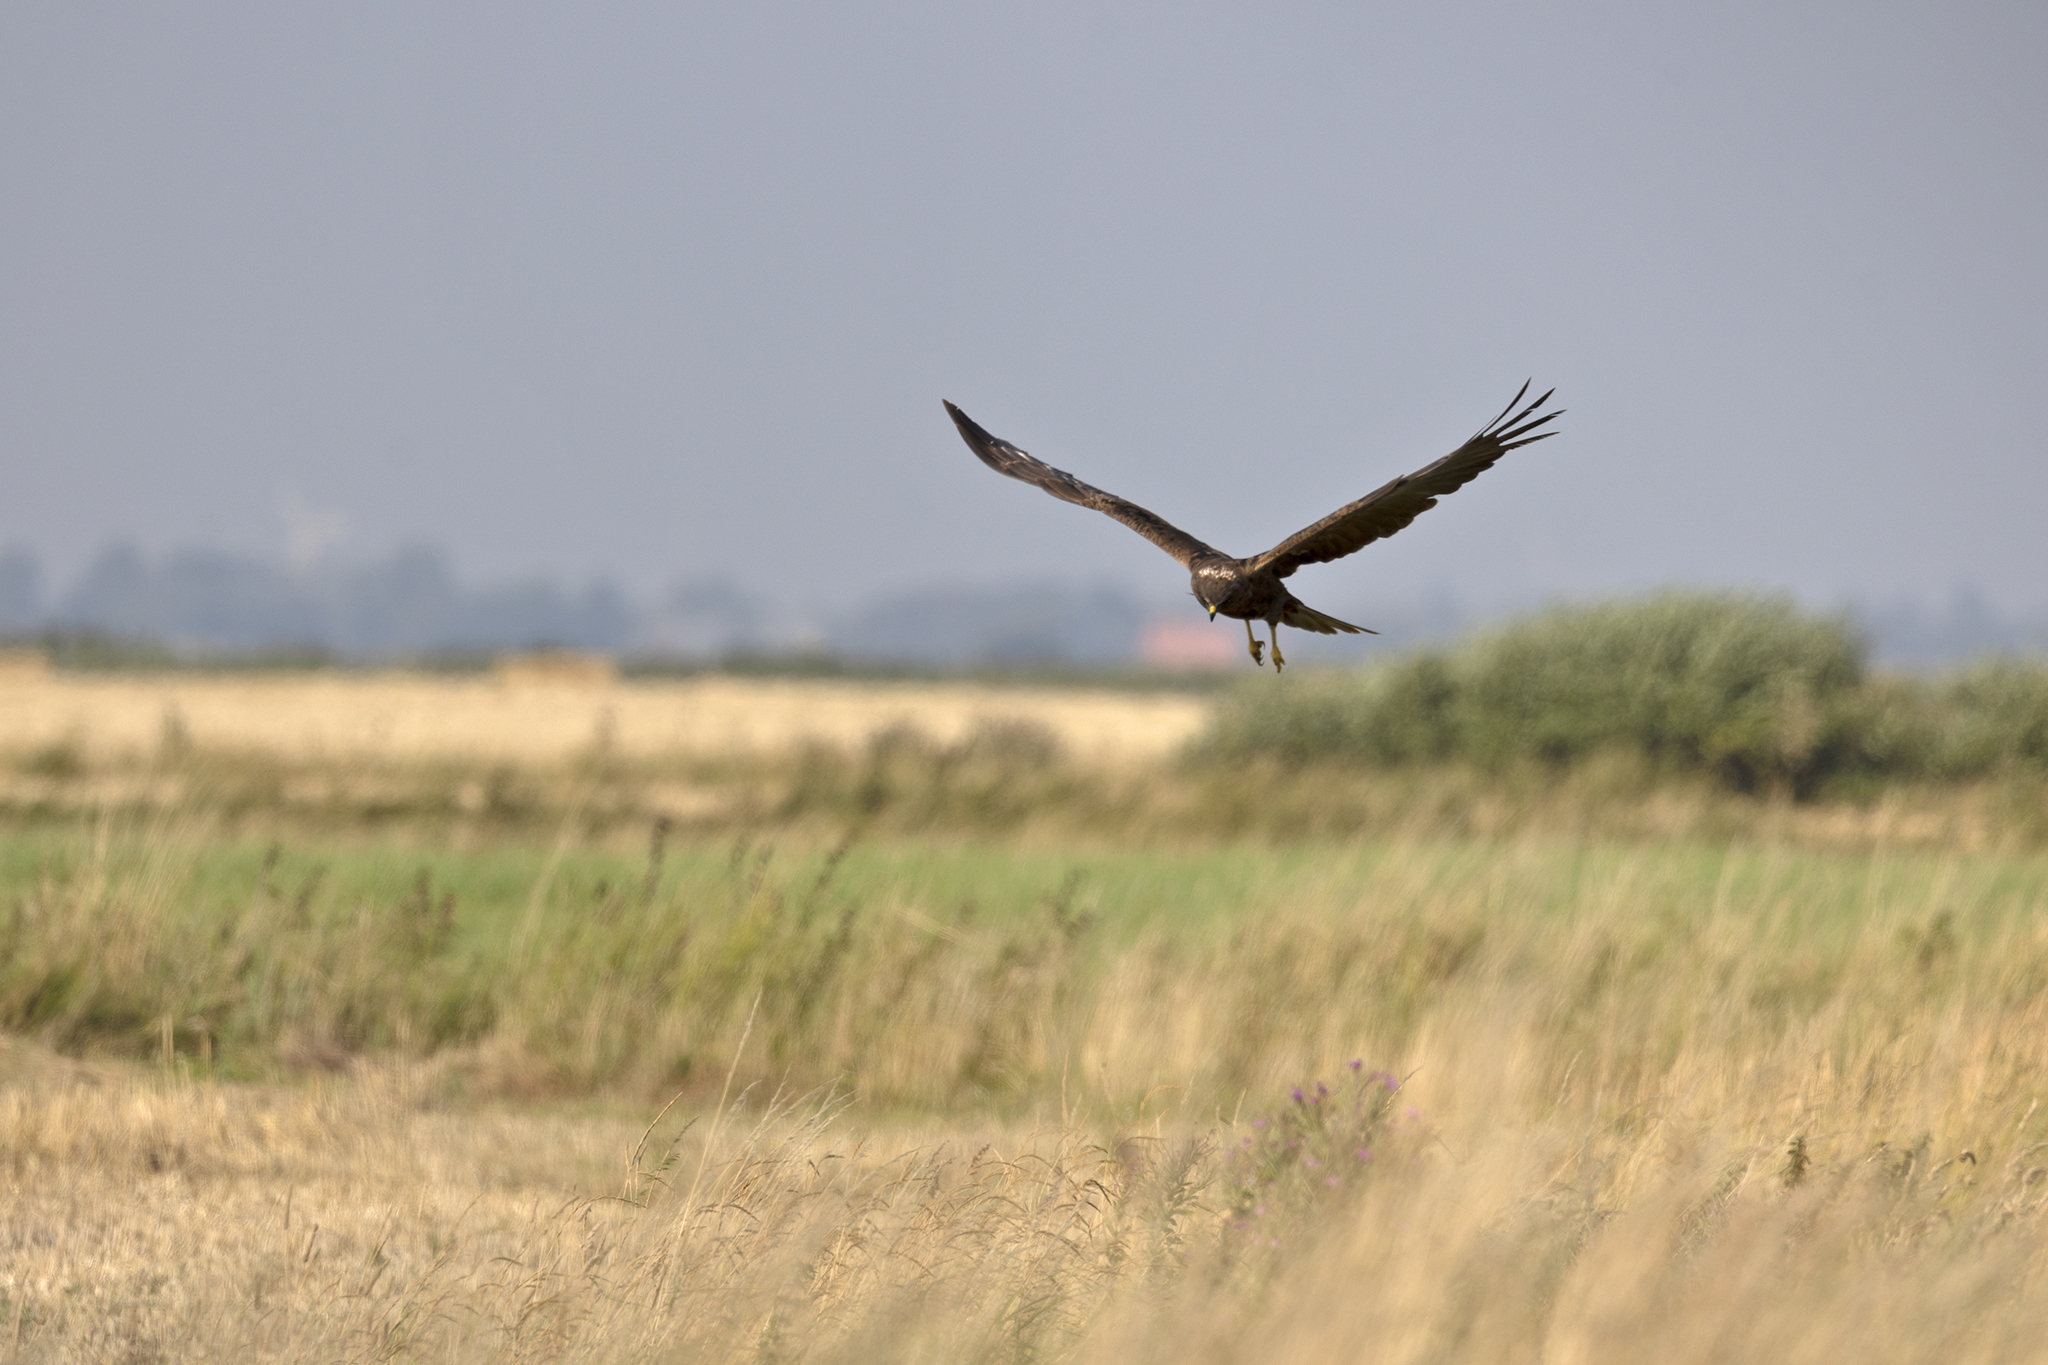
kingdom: Animalia
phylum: Chordata
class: Aves
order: Accipitriformes
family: Accipitridae
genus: Circus
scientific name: Circus aeruginosus
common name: Western marsh harrier
